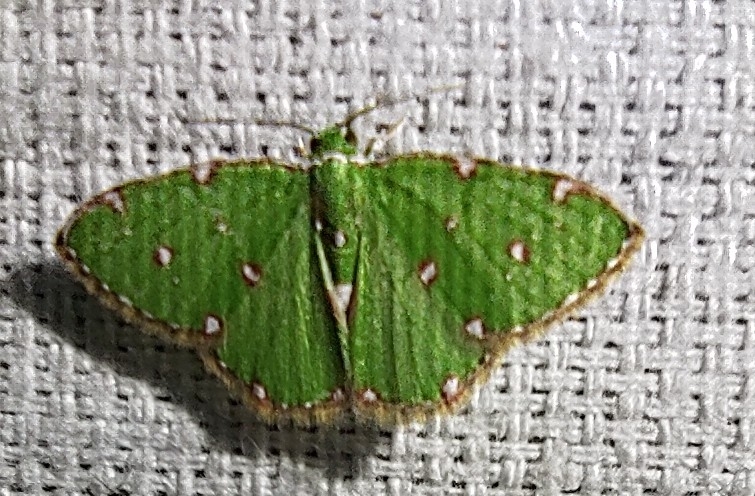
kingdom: Animalia
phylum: Arthropoda
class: Insecta
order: Lepidoptera
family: Geometridae
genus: Argyrocosma
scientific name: Argyrocosma inductaria
